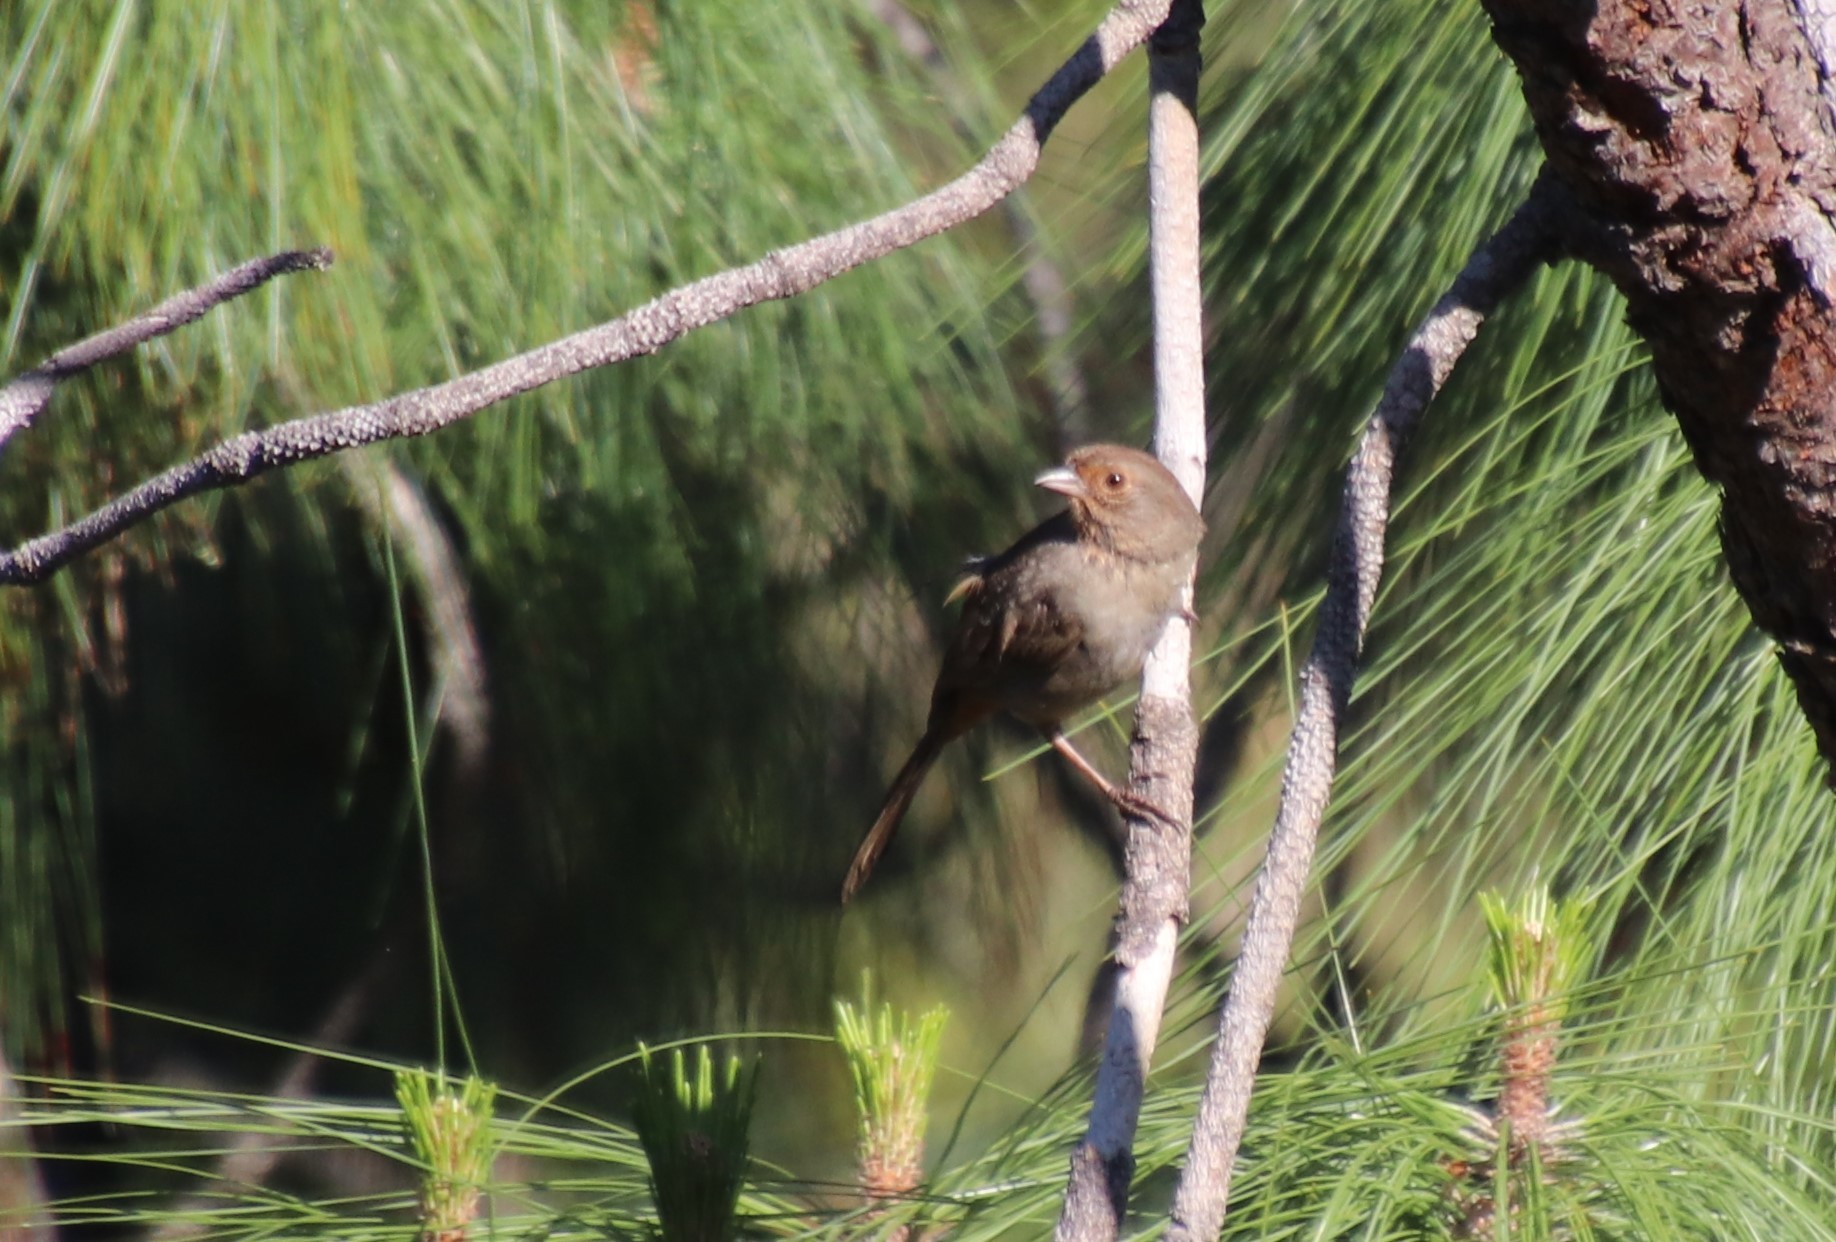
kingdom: Animalia
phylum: Chordata
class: Aves
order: Passeriformes
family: Passerellidae
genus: Melozone
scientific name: Melozone crissalis
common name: California towhee
